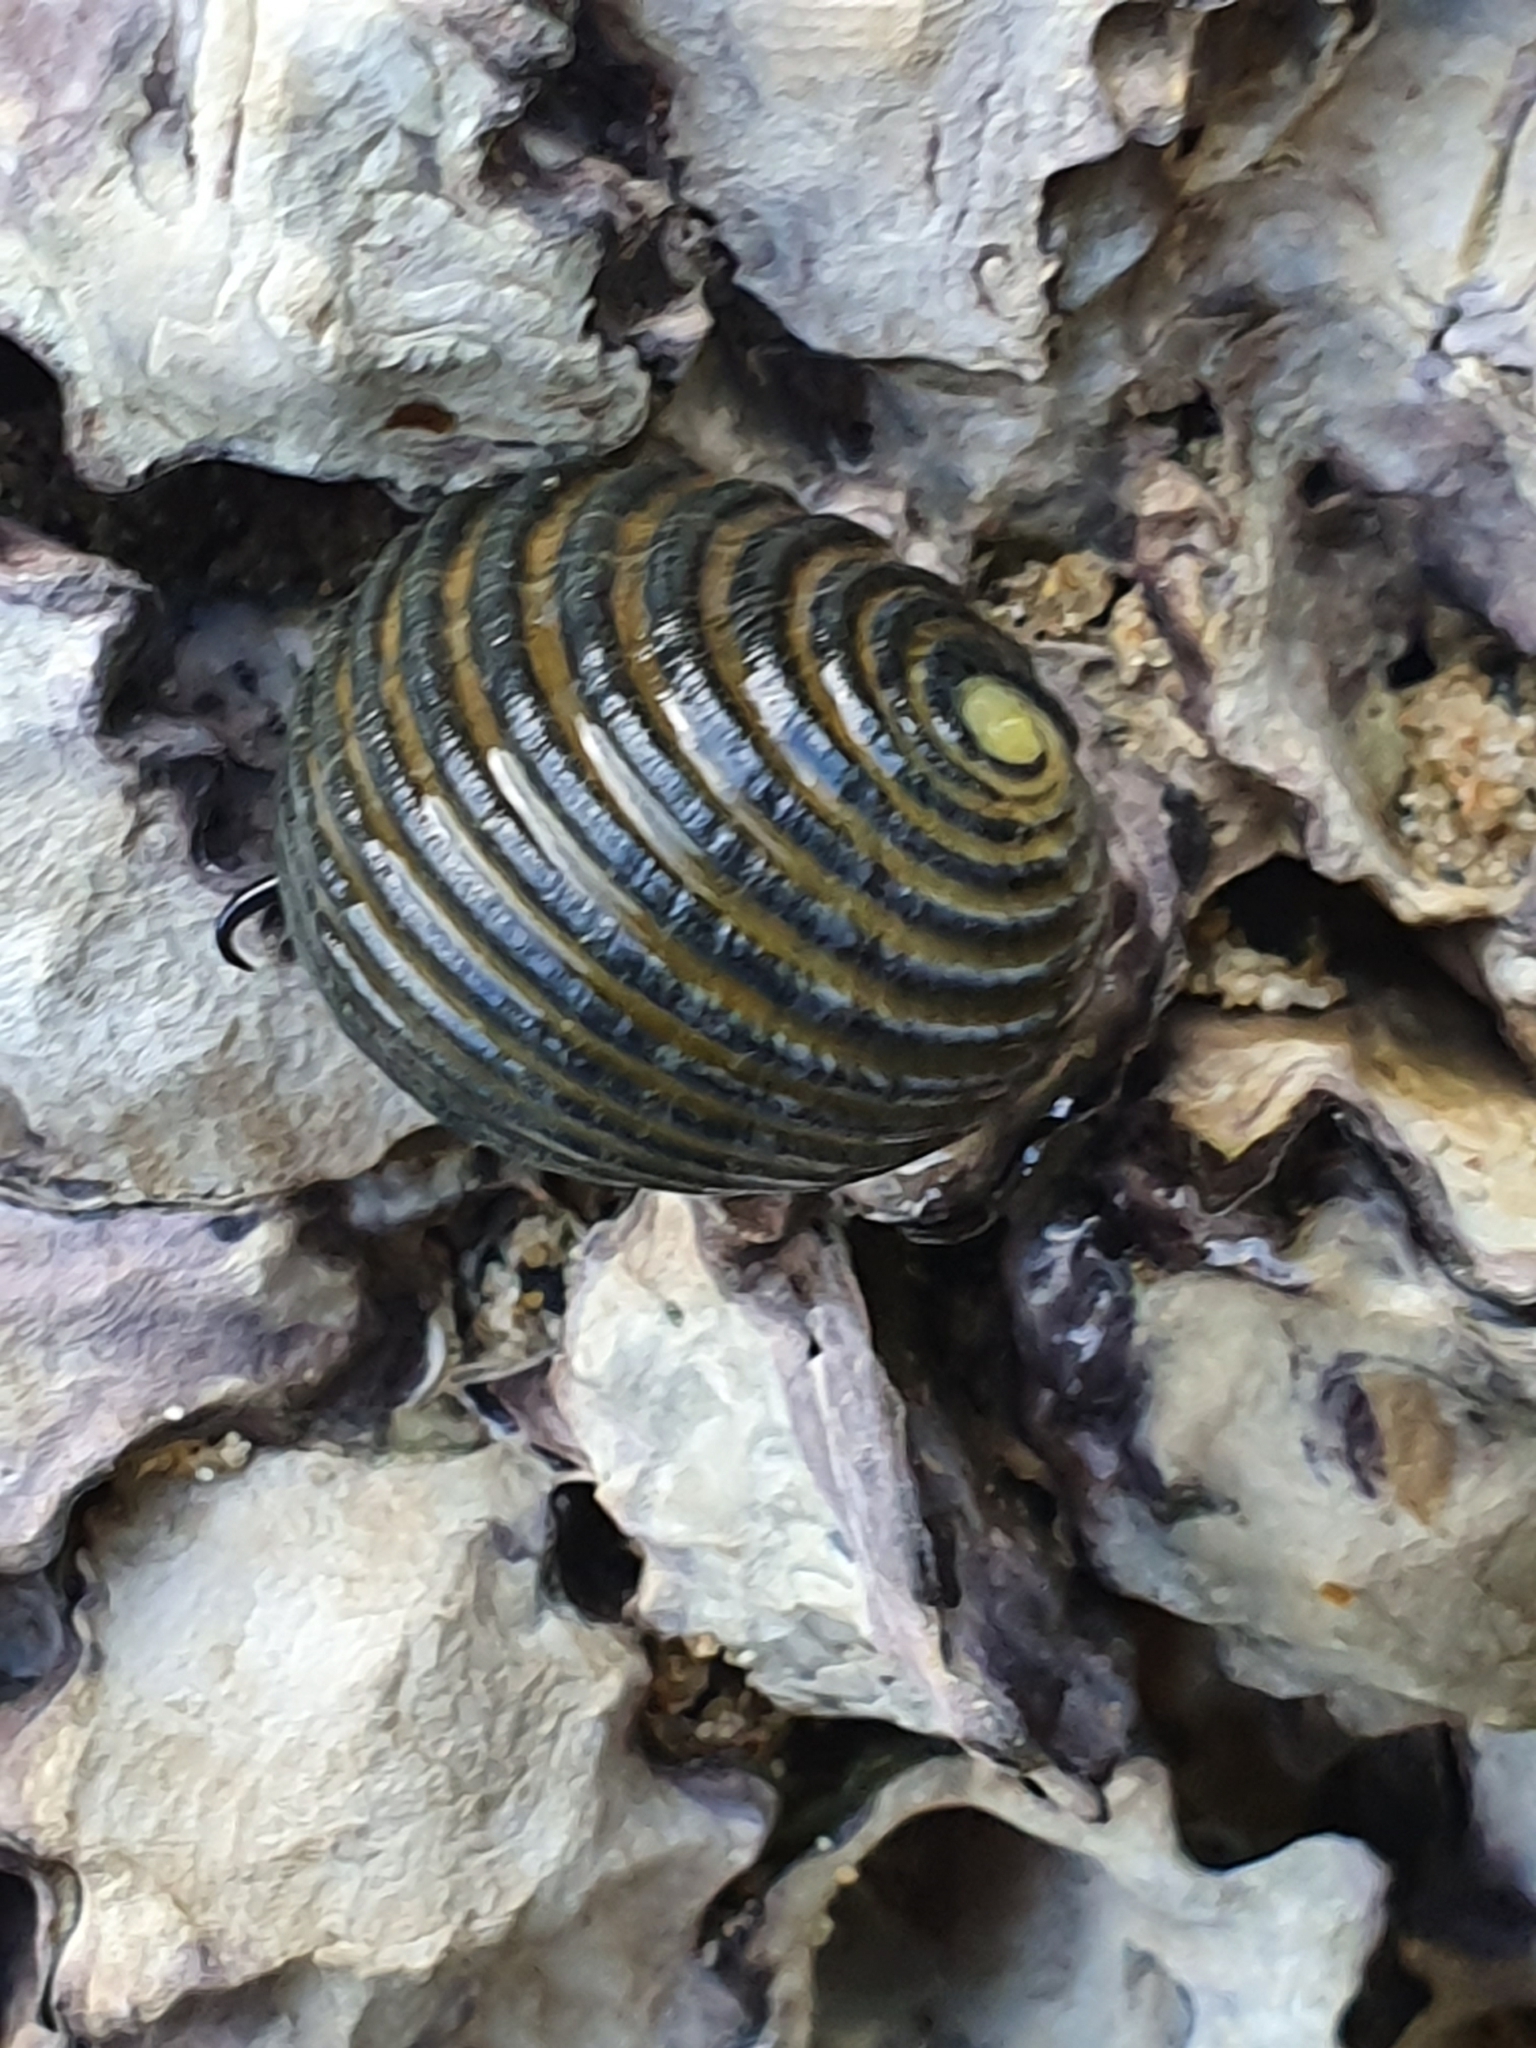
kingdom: Animalia
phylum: Mollusca
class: Gastropoda
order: Cycloneritida
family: Neritidae
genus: Nerita
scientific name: Nerita costata
